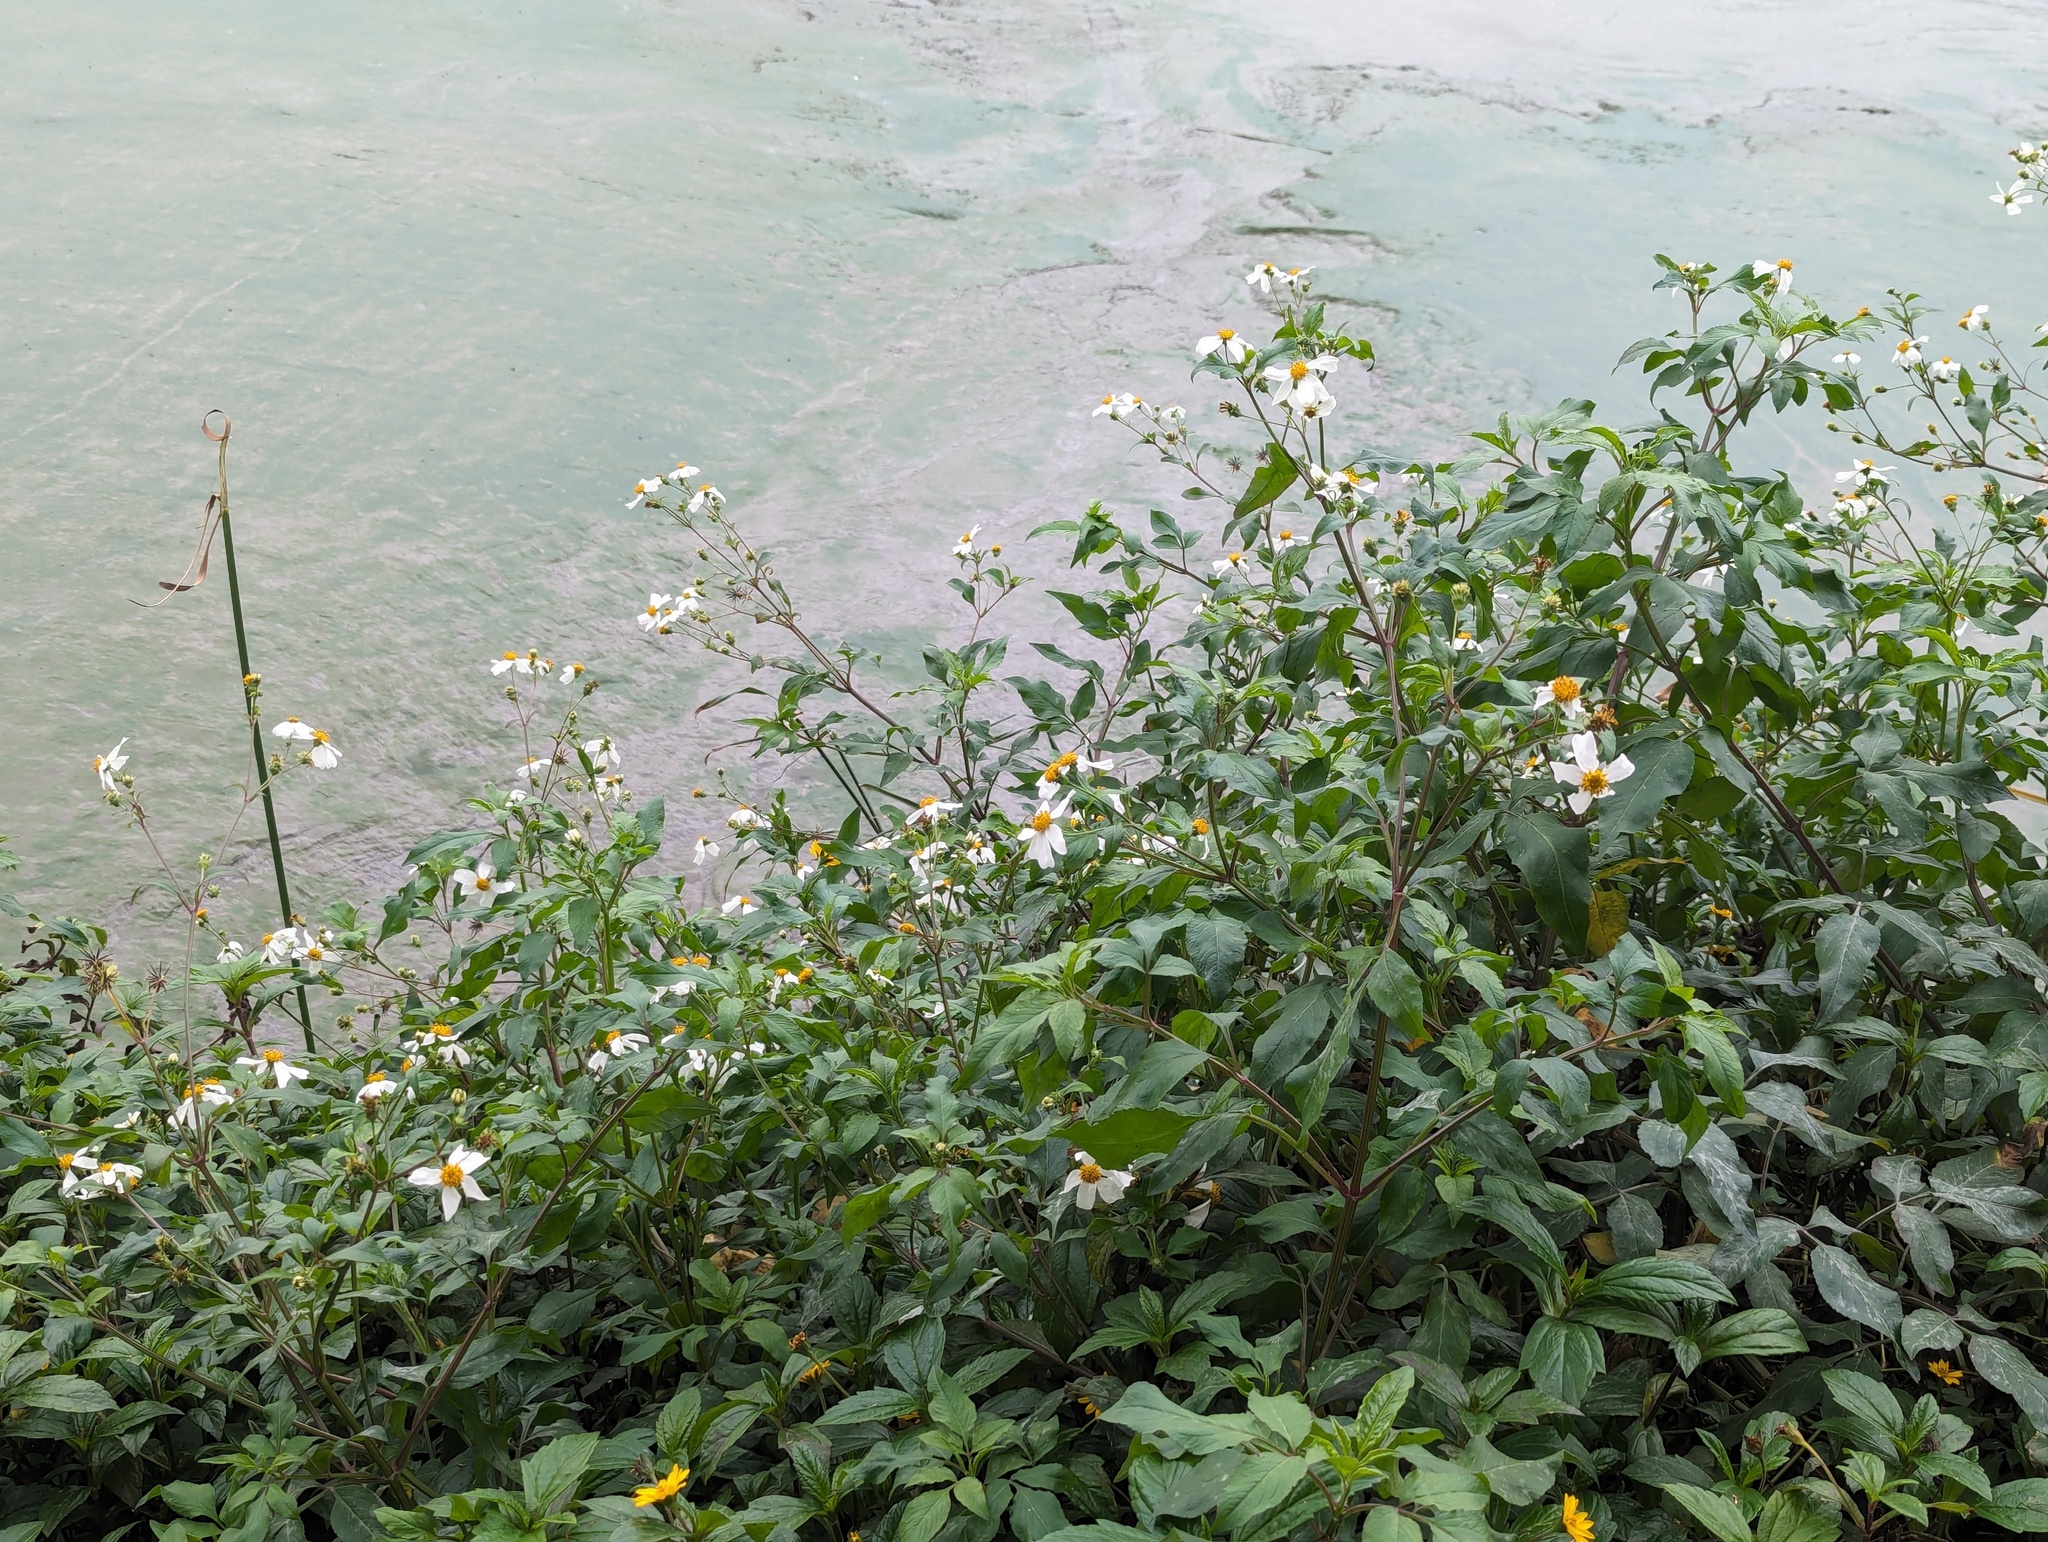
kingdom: Plantae
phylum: Tracheophyta
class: Magnoliopsida
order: Asterales
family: Asteraceae
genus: Bidens
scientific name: Bidens alba
